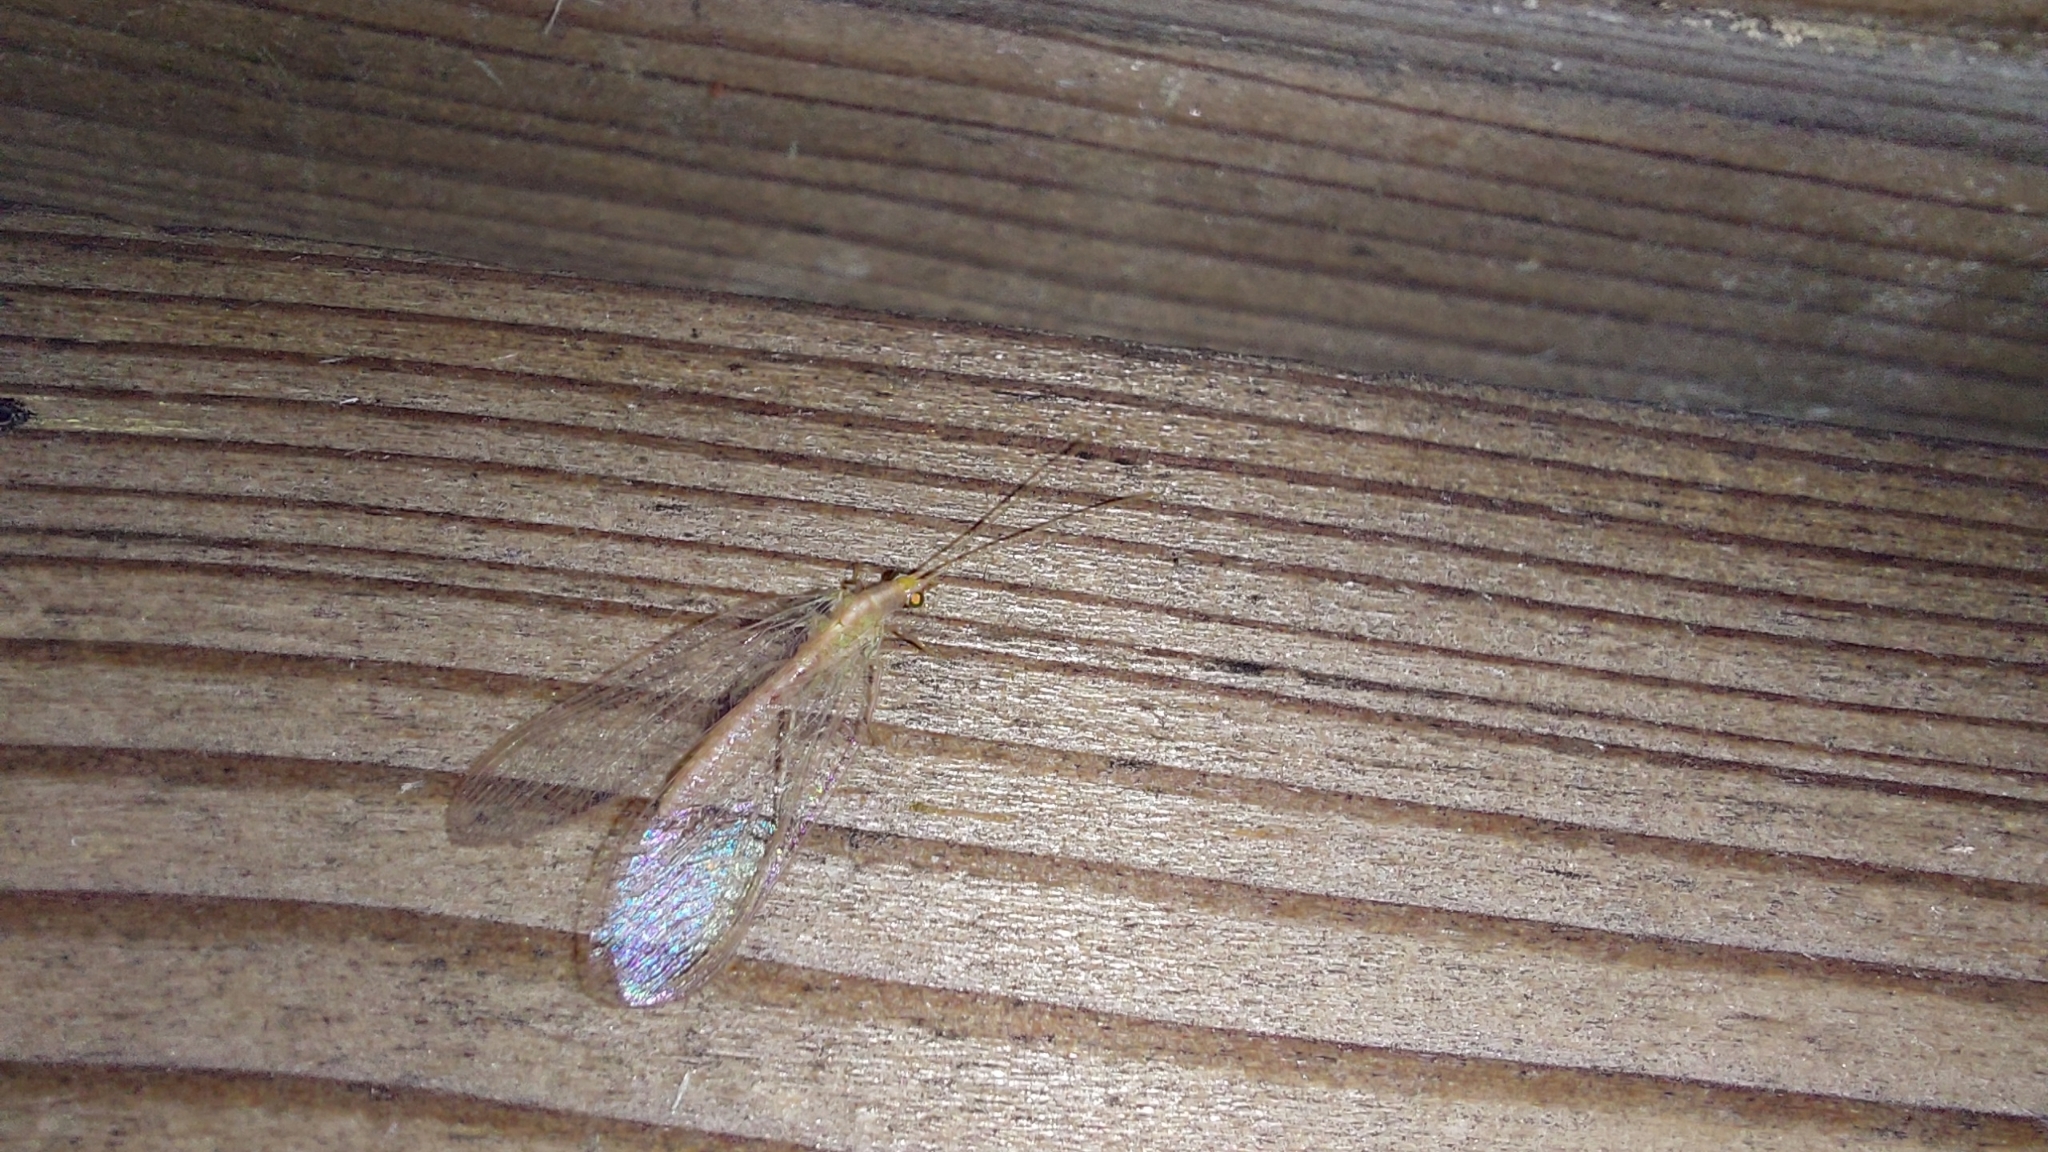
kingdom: Animalia
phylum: Arthropoda
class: Insecta
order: Neuroptera
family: Chrysopidae
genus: Chrysoperla
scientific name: Chrysoperla
